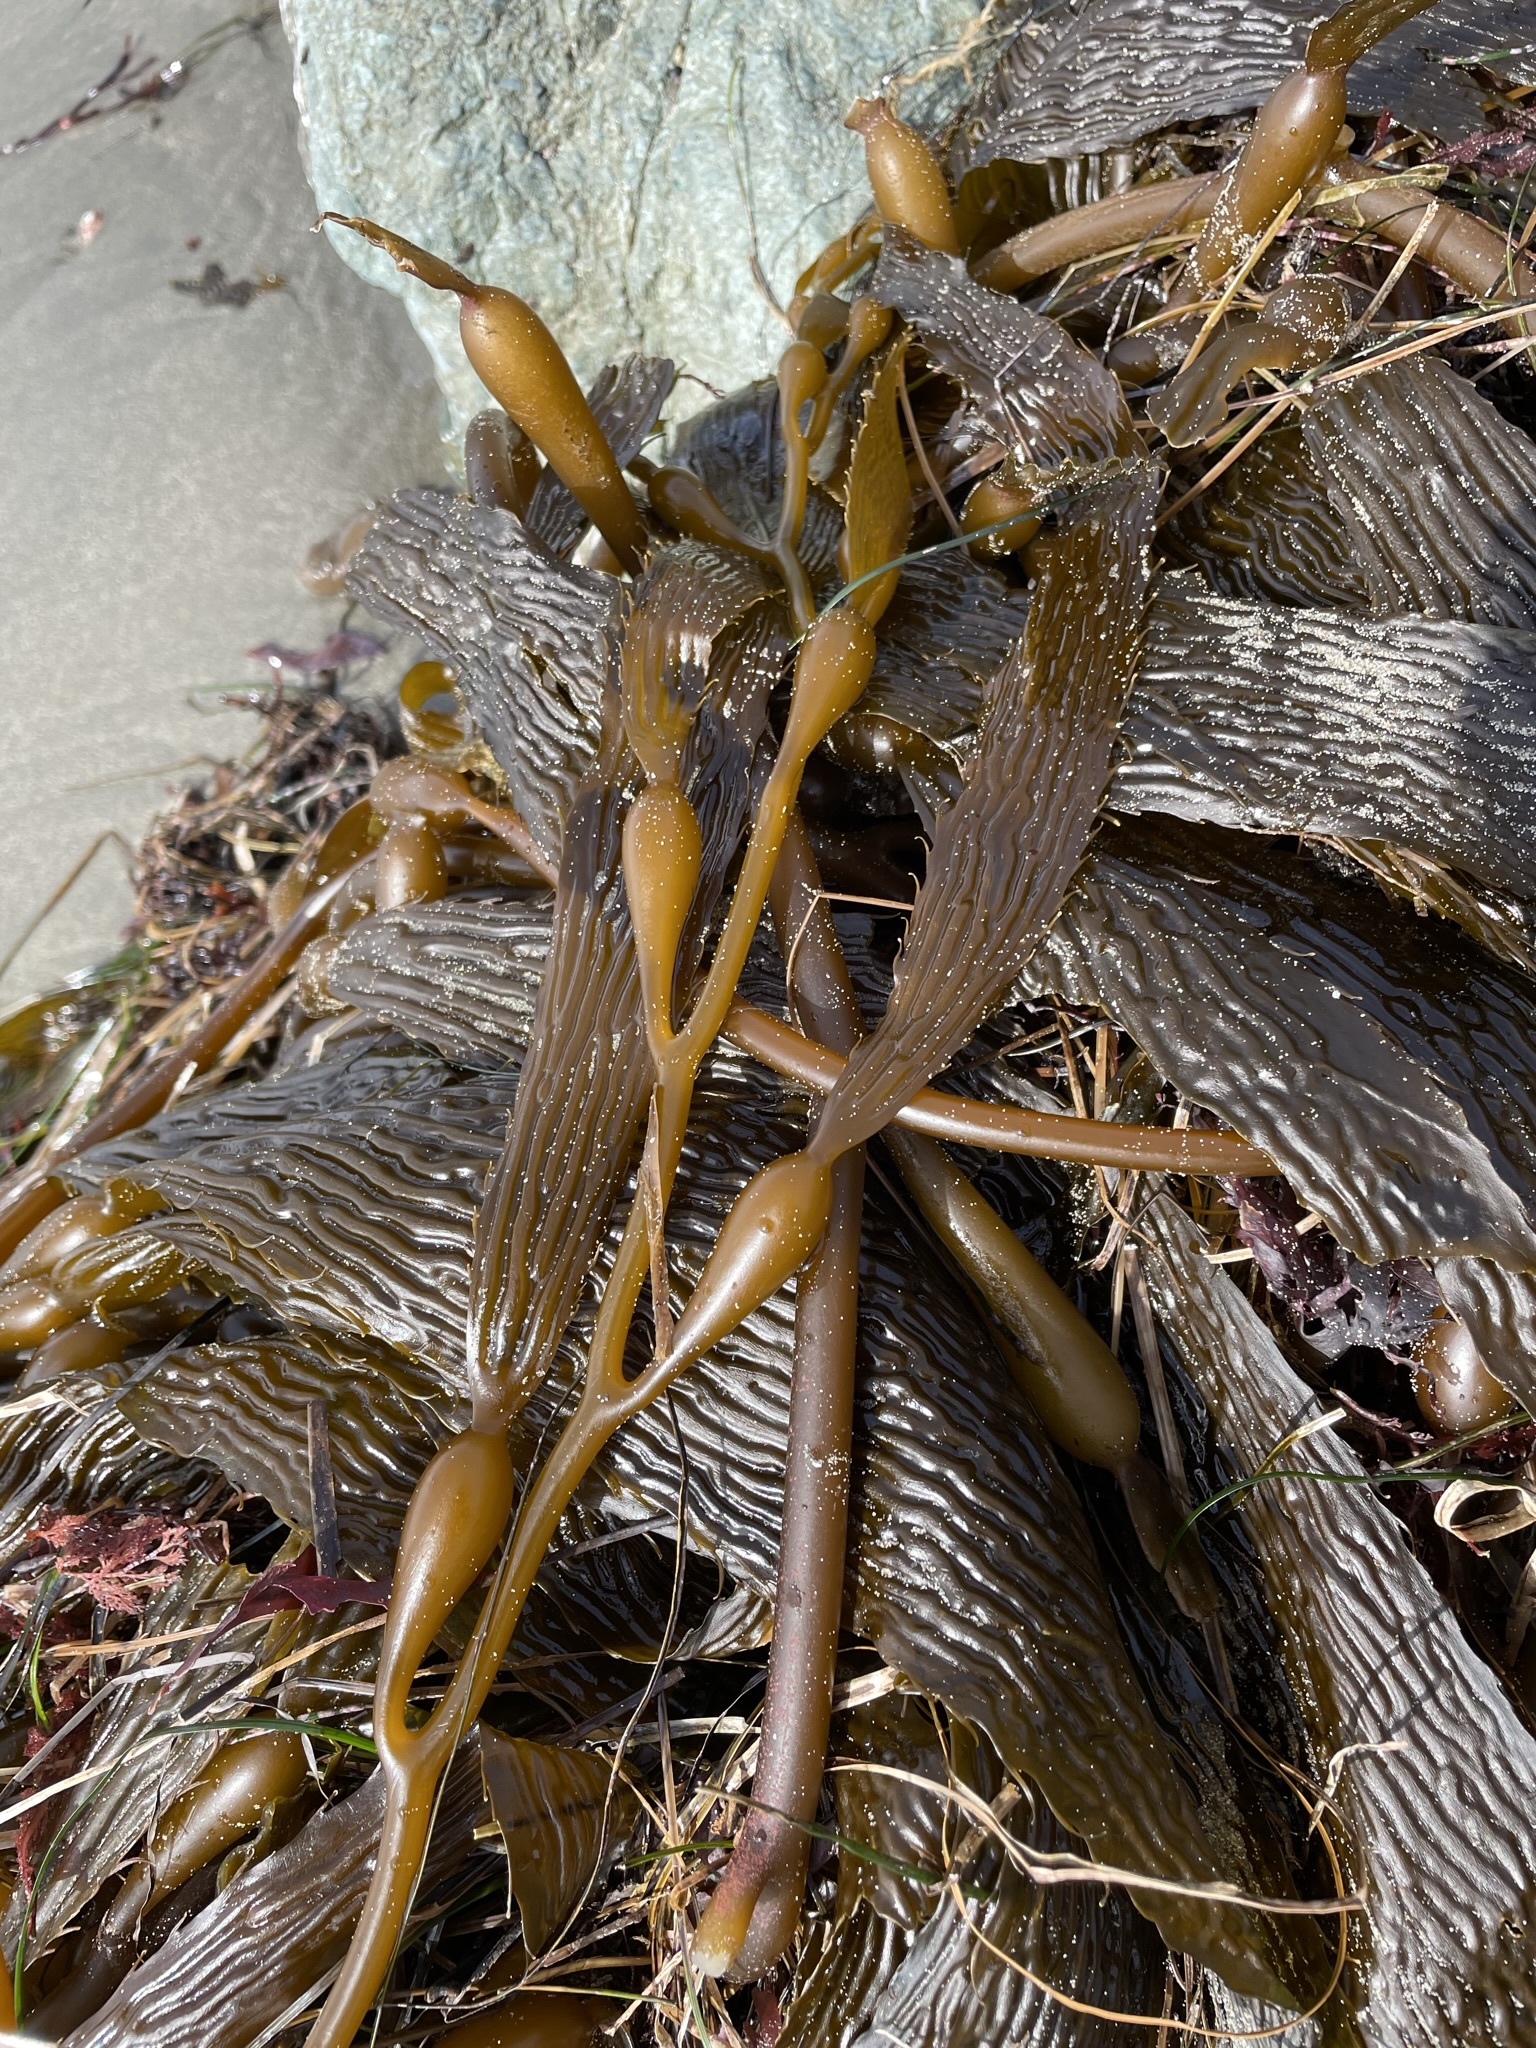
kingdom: Chromista
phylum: Ochrophyta
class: Phaeophyceae
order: Laminariales
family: Laminariaceae
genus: Macrocystis
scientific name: Macrocystis pyrifera
